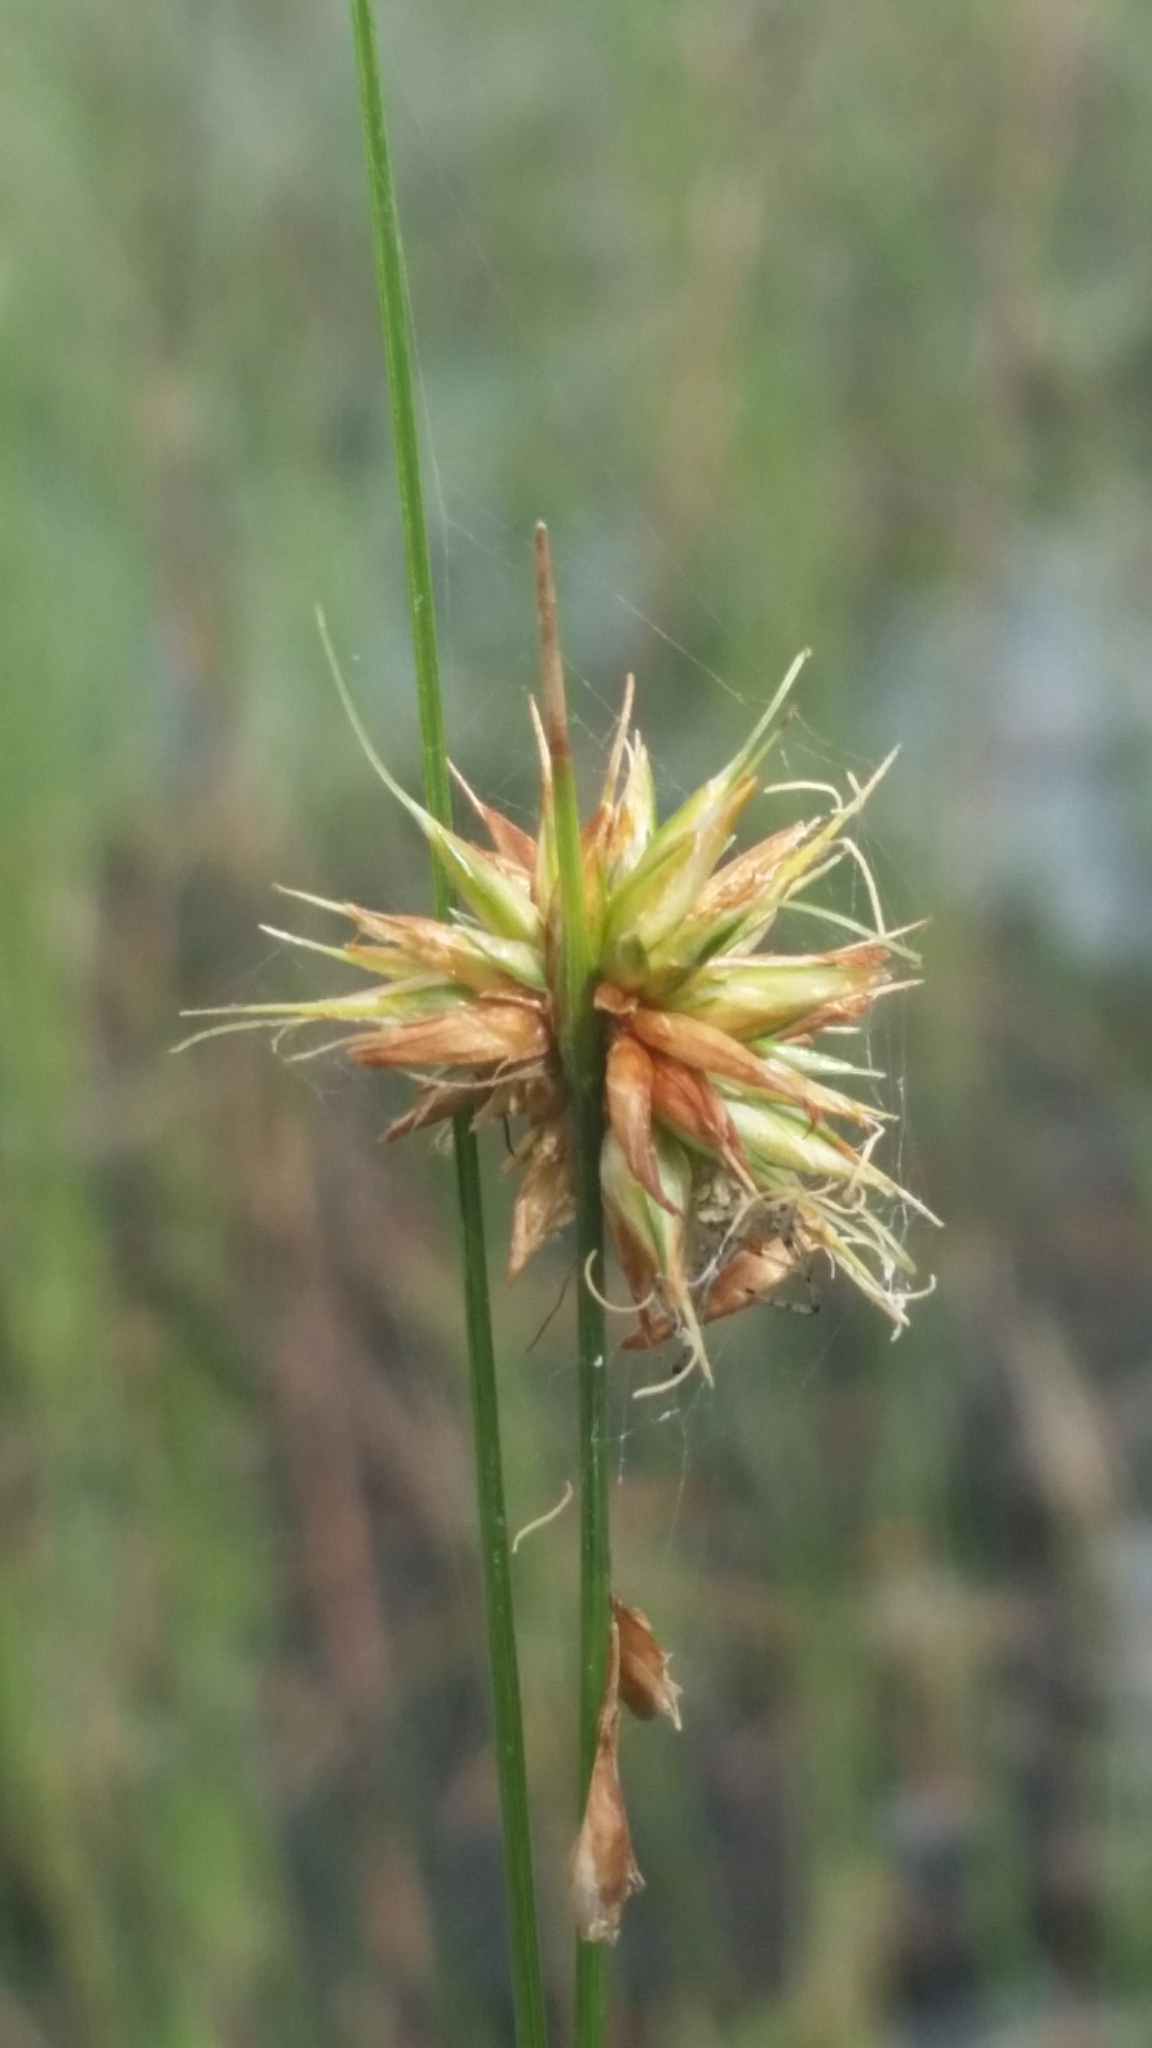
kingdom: Plantae
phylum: Tracheophyta
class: Liliopsida
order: Poales
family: Cyperaceae
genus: Rhynchospora
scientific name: Rhynchospora tracyi
